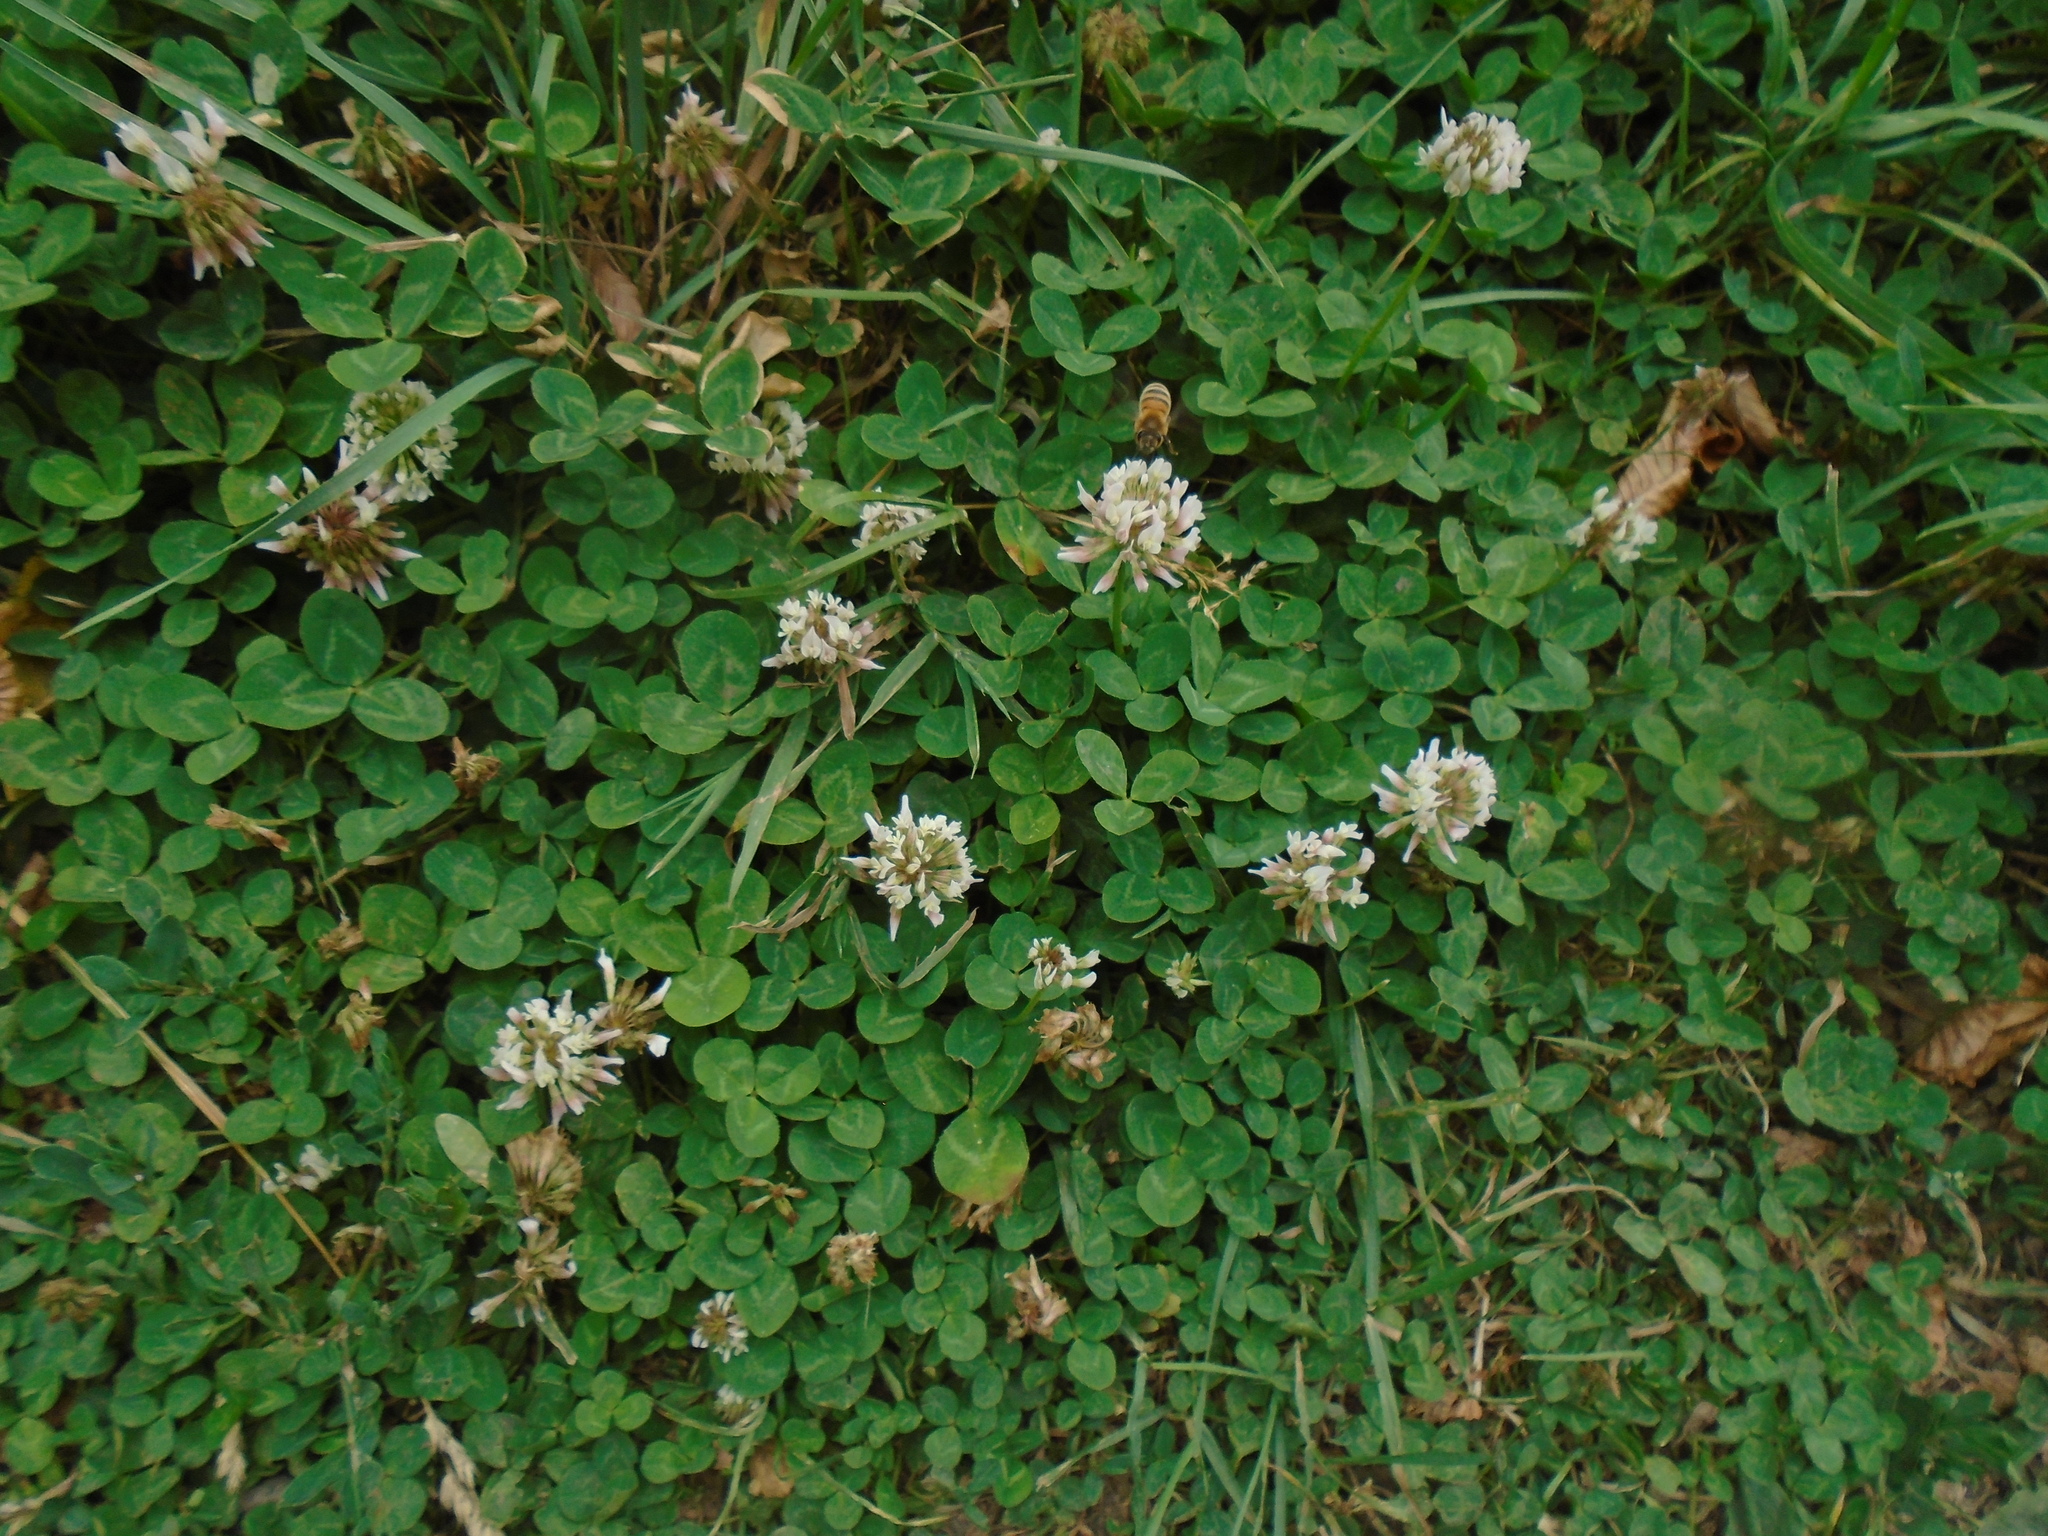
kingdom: Plantae
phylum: Tracheophyta
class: Magnoliopsida
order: Fabales
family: Fabaceae
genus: Trifolium
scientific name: Trifolium repens
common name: White clover
